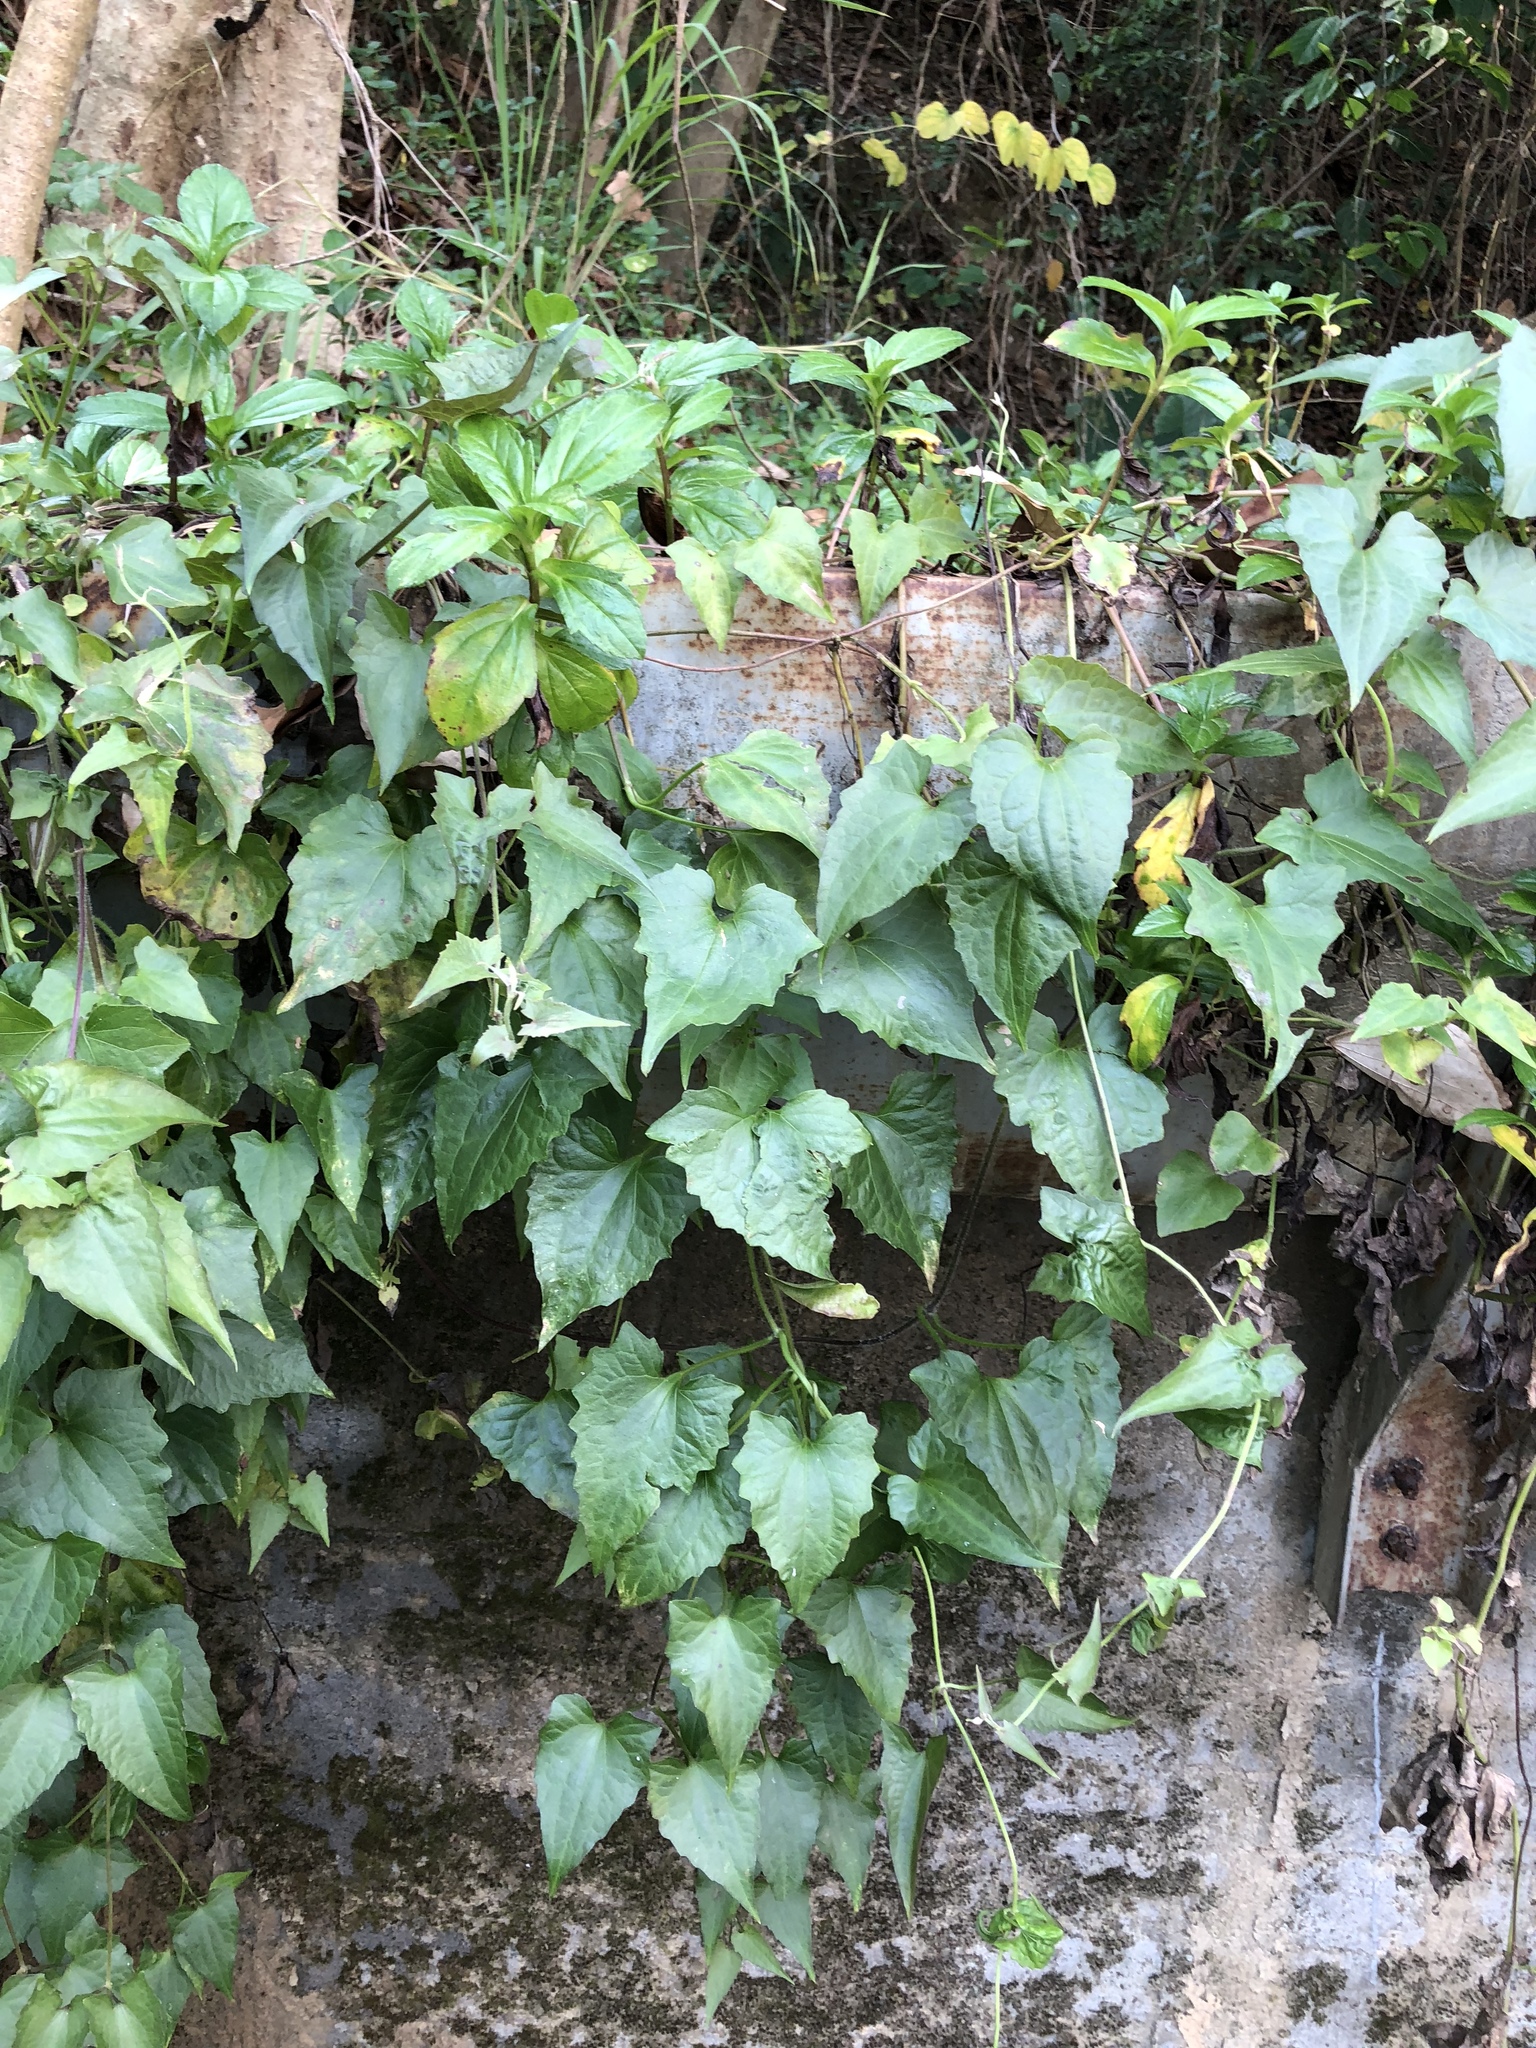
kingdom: Plantae
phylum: Tracheophyta
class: Magnoliopsida
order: Asterales
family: Asteraceae
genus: Mikania
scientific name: Mikania micrantha
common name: Mile-a-minute
